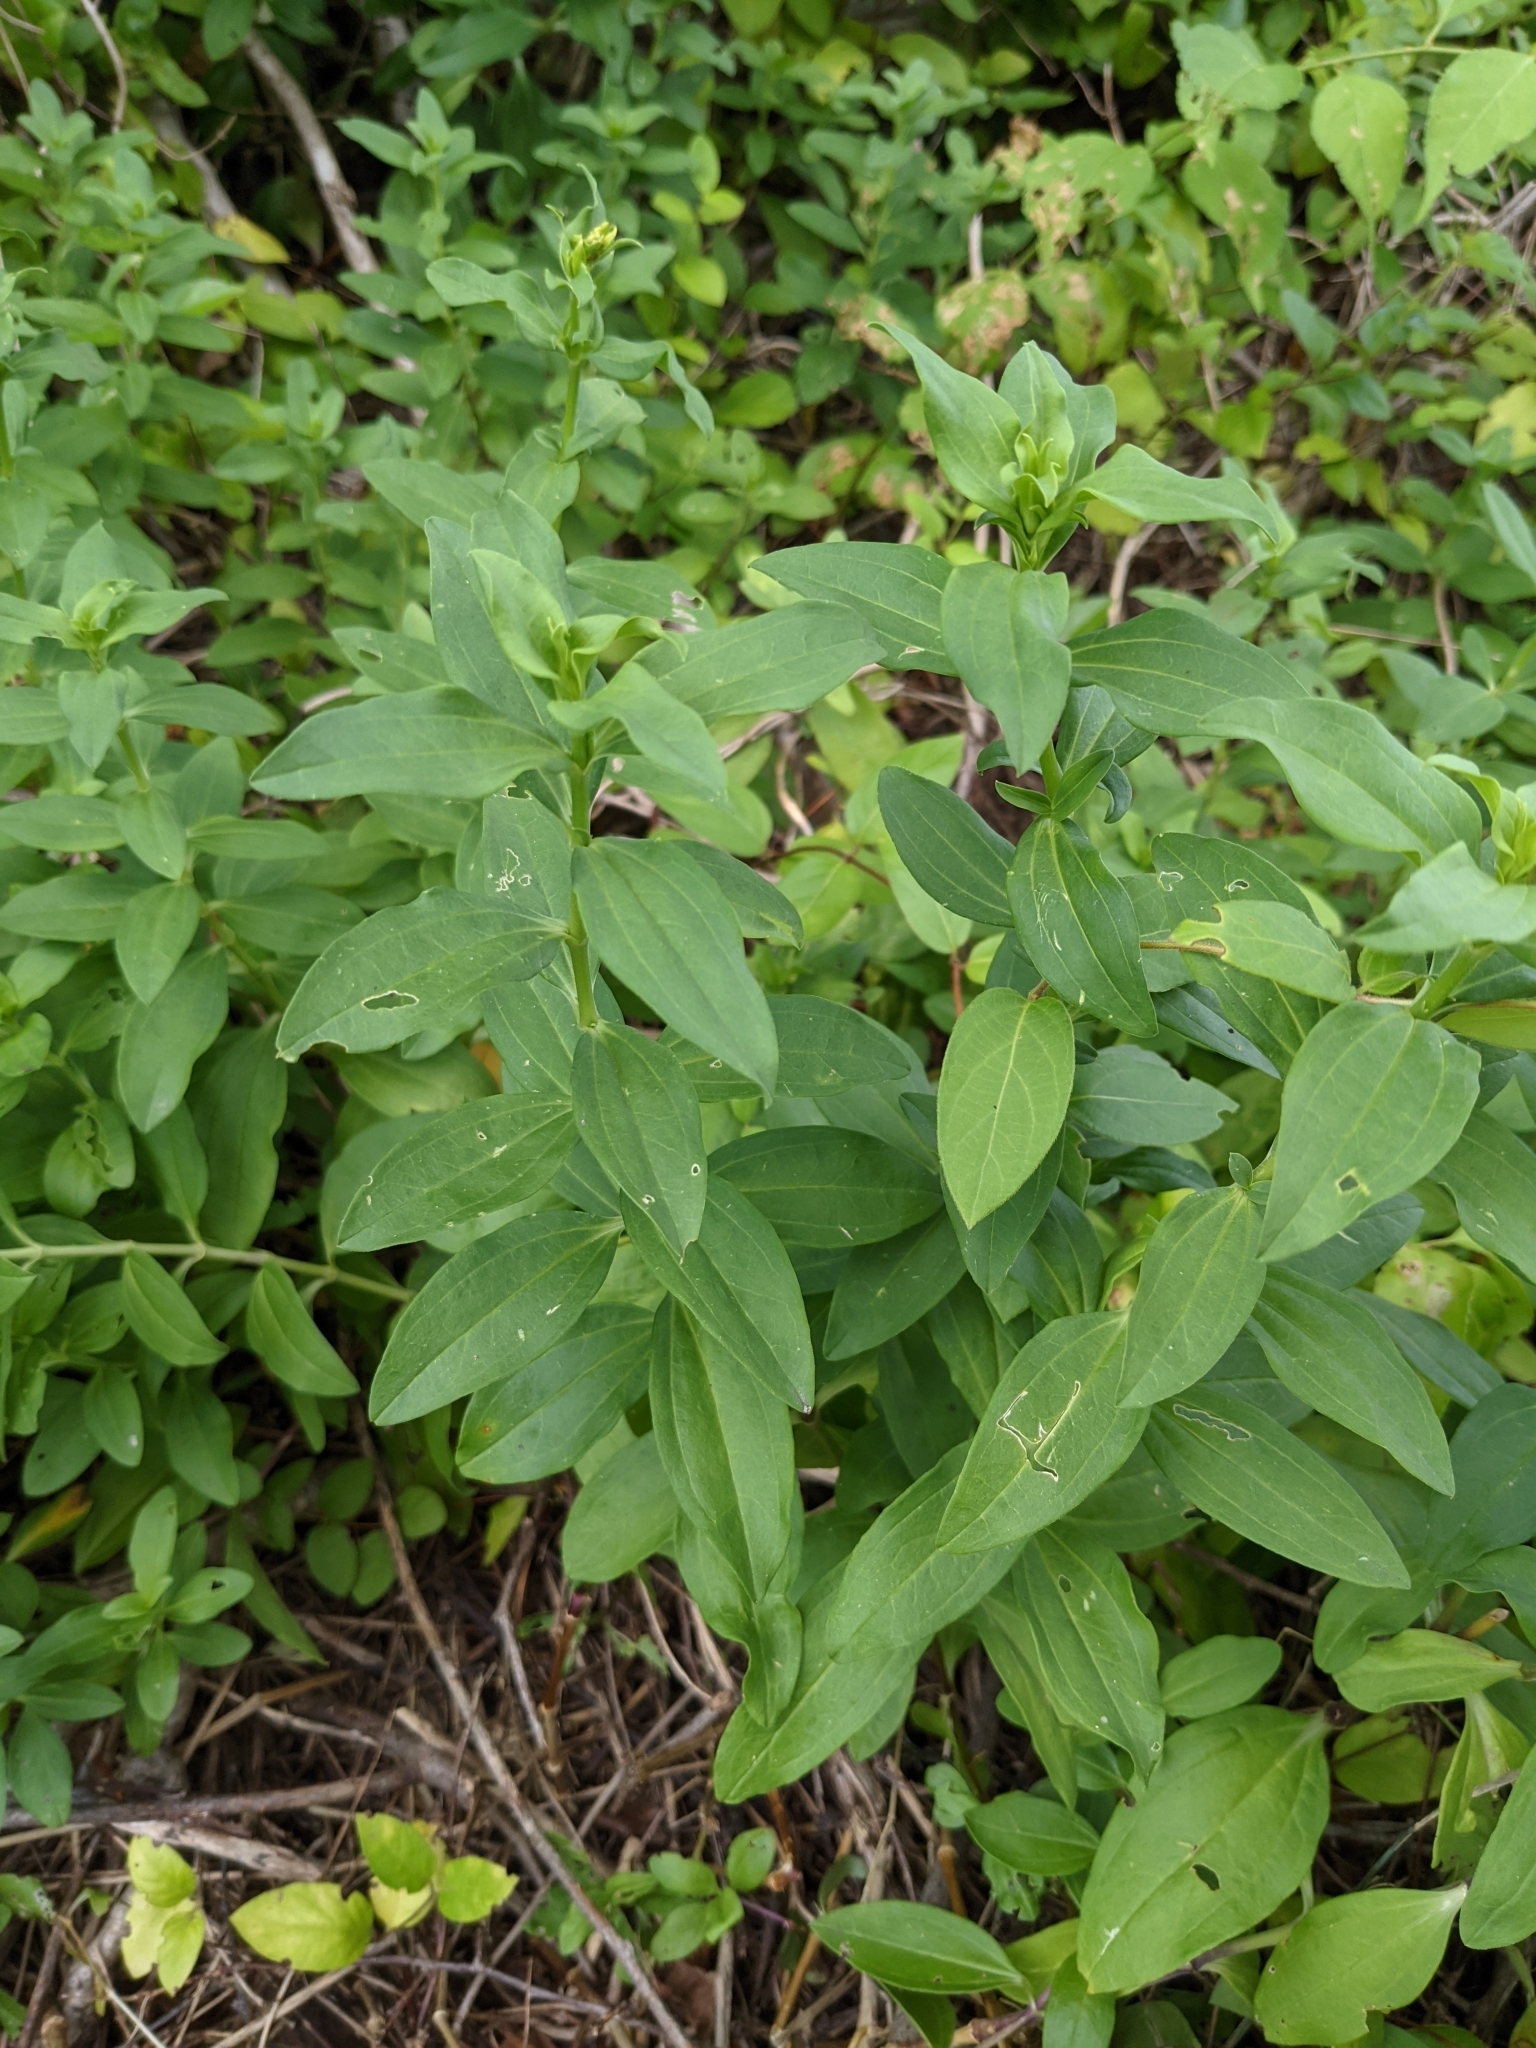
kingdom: Plantae
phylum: Tracheophyta
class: Magnoliopsida
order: Caryophyllales
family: Caryophyllaceae
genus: Saponaria
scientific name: Saponaria officinalis
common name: Soapwort
